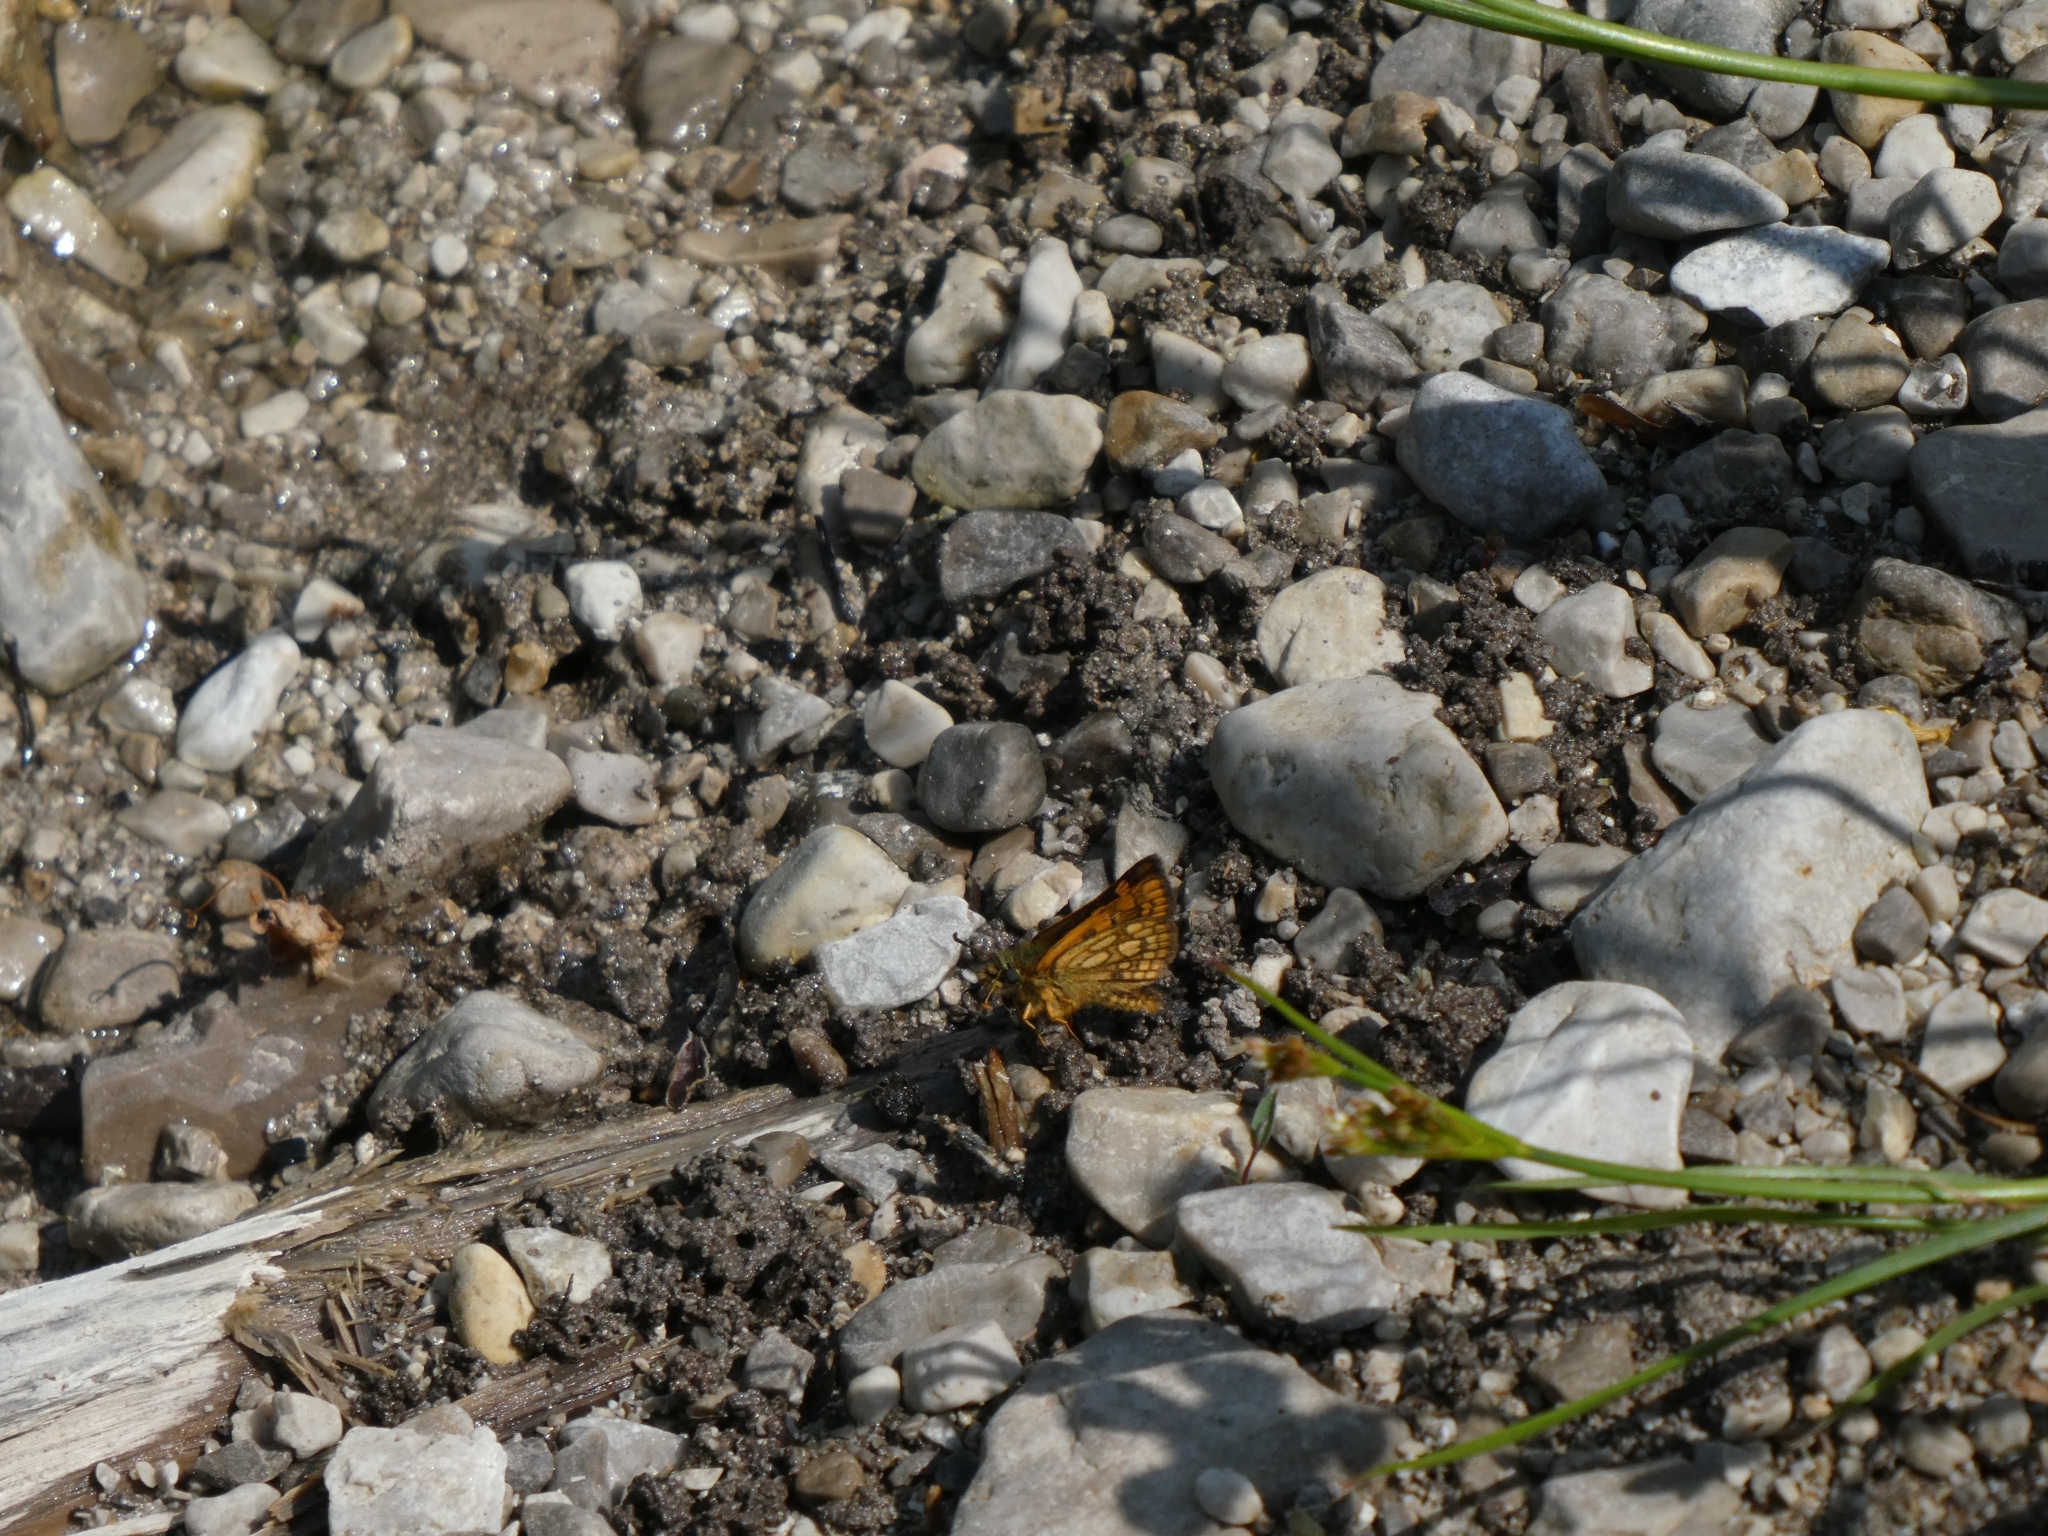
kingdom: Animalia
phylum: Arthropoda
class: Insecta
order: Lepidoptera
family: Hesperiidae
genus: Carterocephalus
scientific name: Carterocephalus palaemon
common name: Chequered skipper
